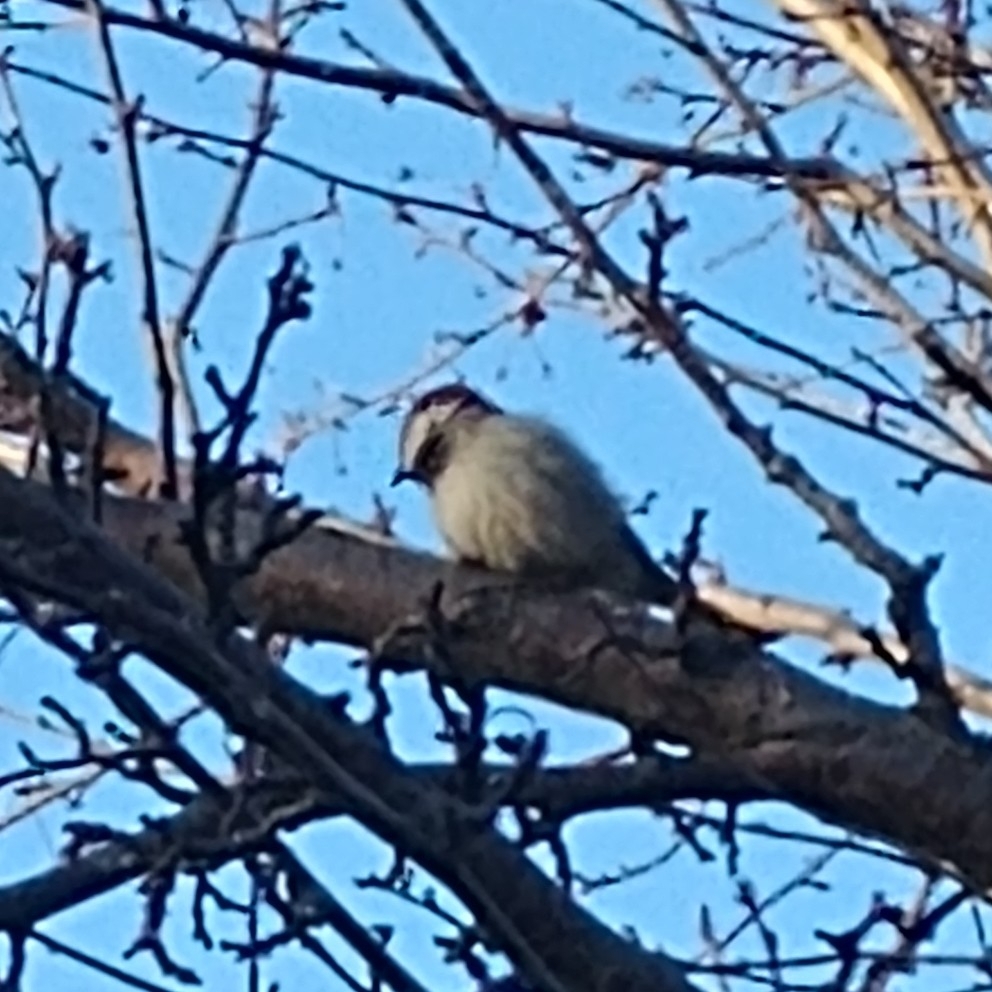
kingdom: Animalia
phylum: Chordata
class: Aves
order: Passeriformes
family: Passeridae
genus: Passer
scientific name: Passer domesticus
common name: House sparrow
